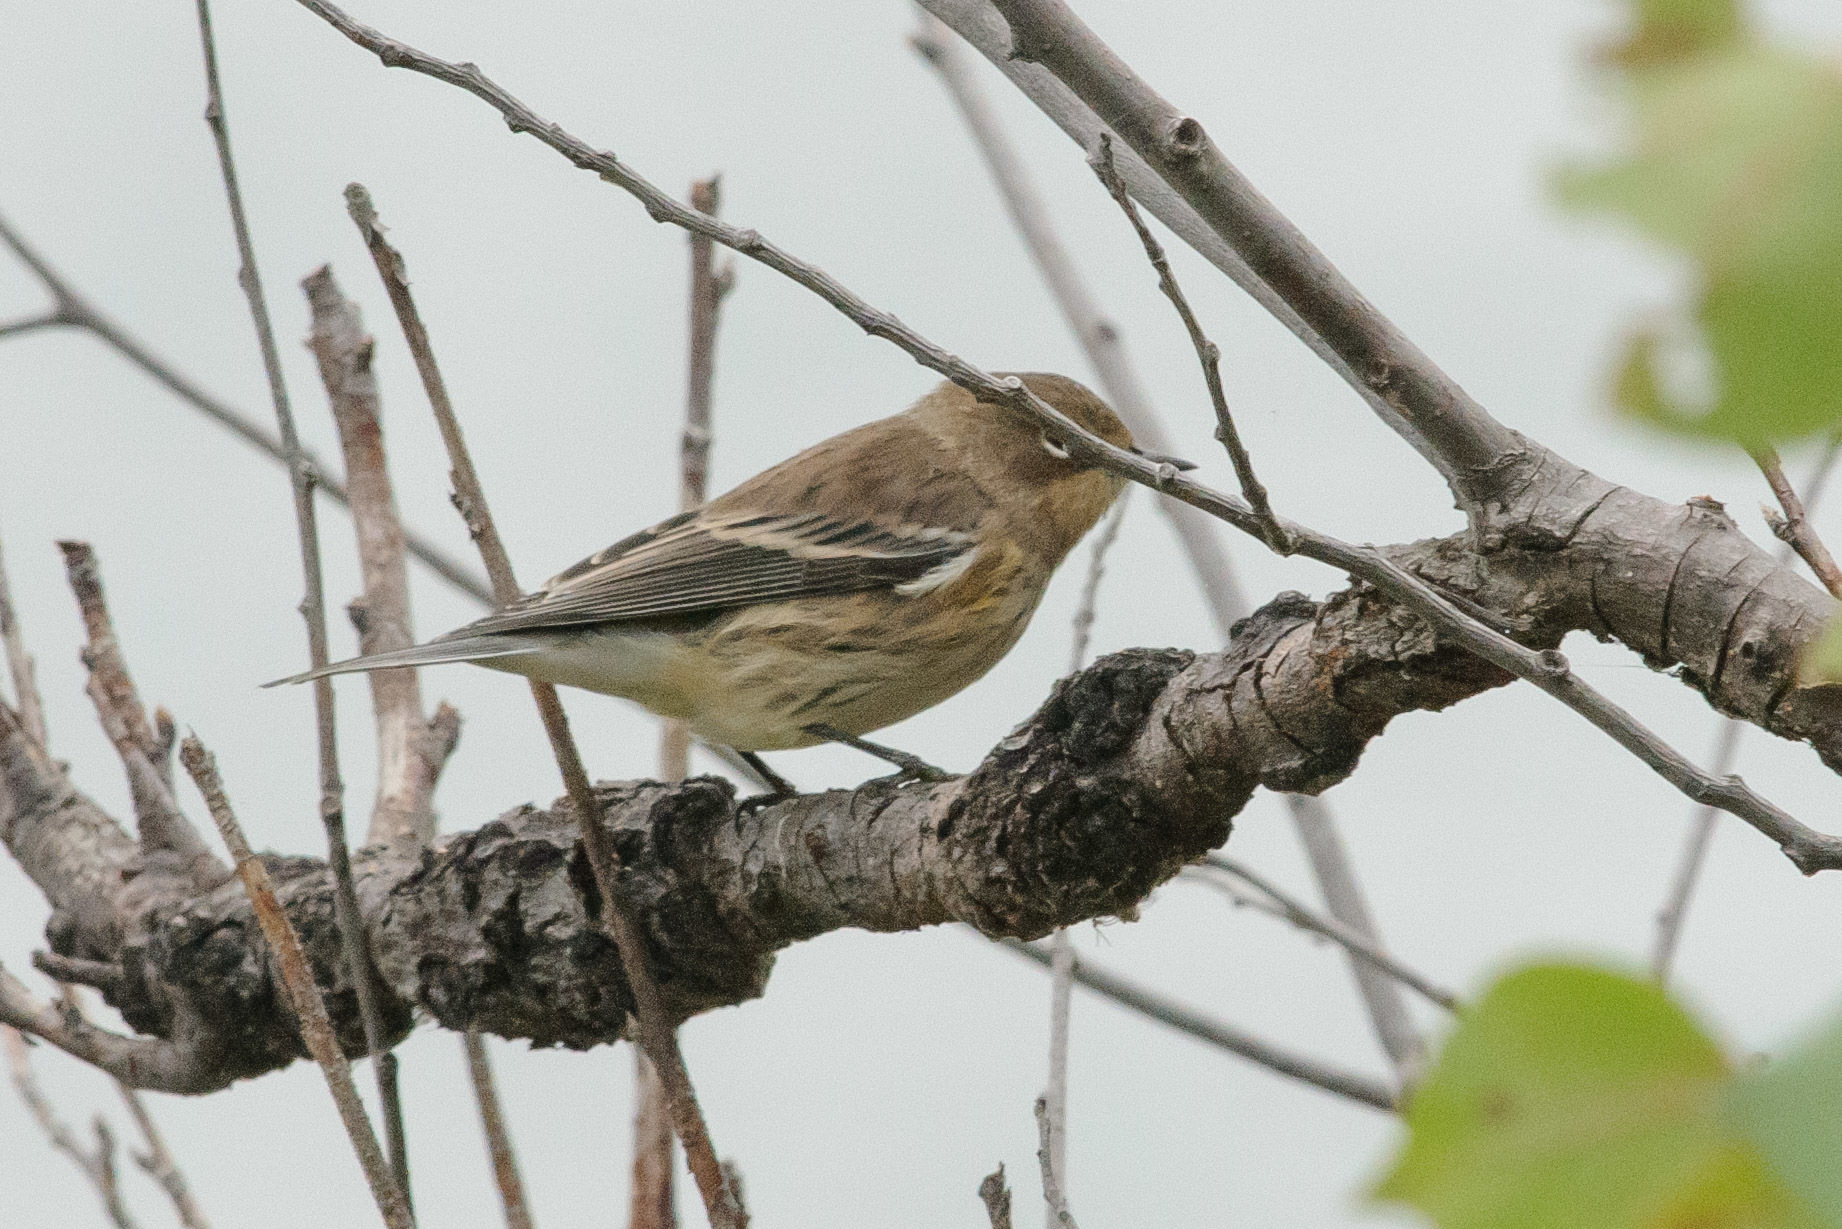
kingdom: Animalia
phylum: Chordata
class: Aves
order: Passeriformes
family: Parulidae
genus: Setophaga
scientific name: Setophaga coronata
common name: Myrtle warbler
